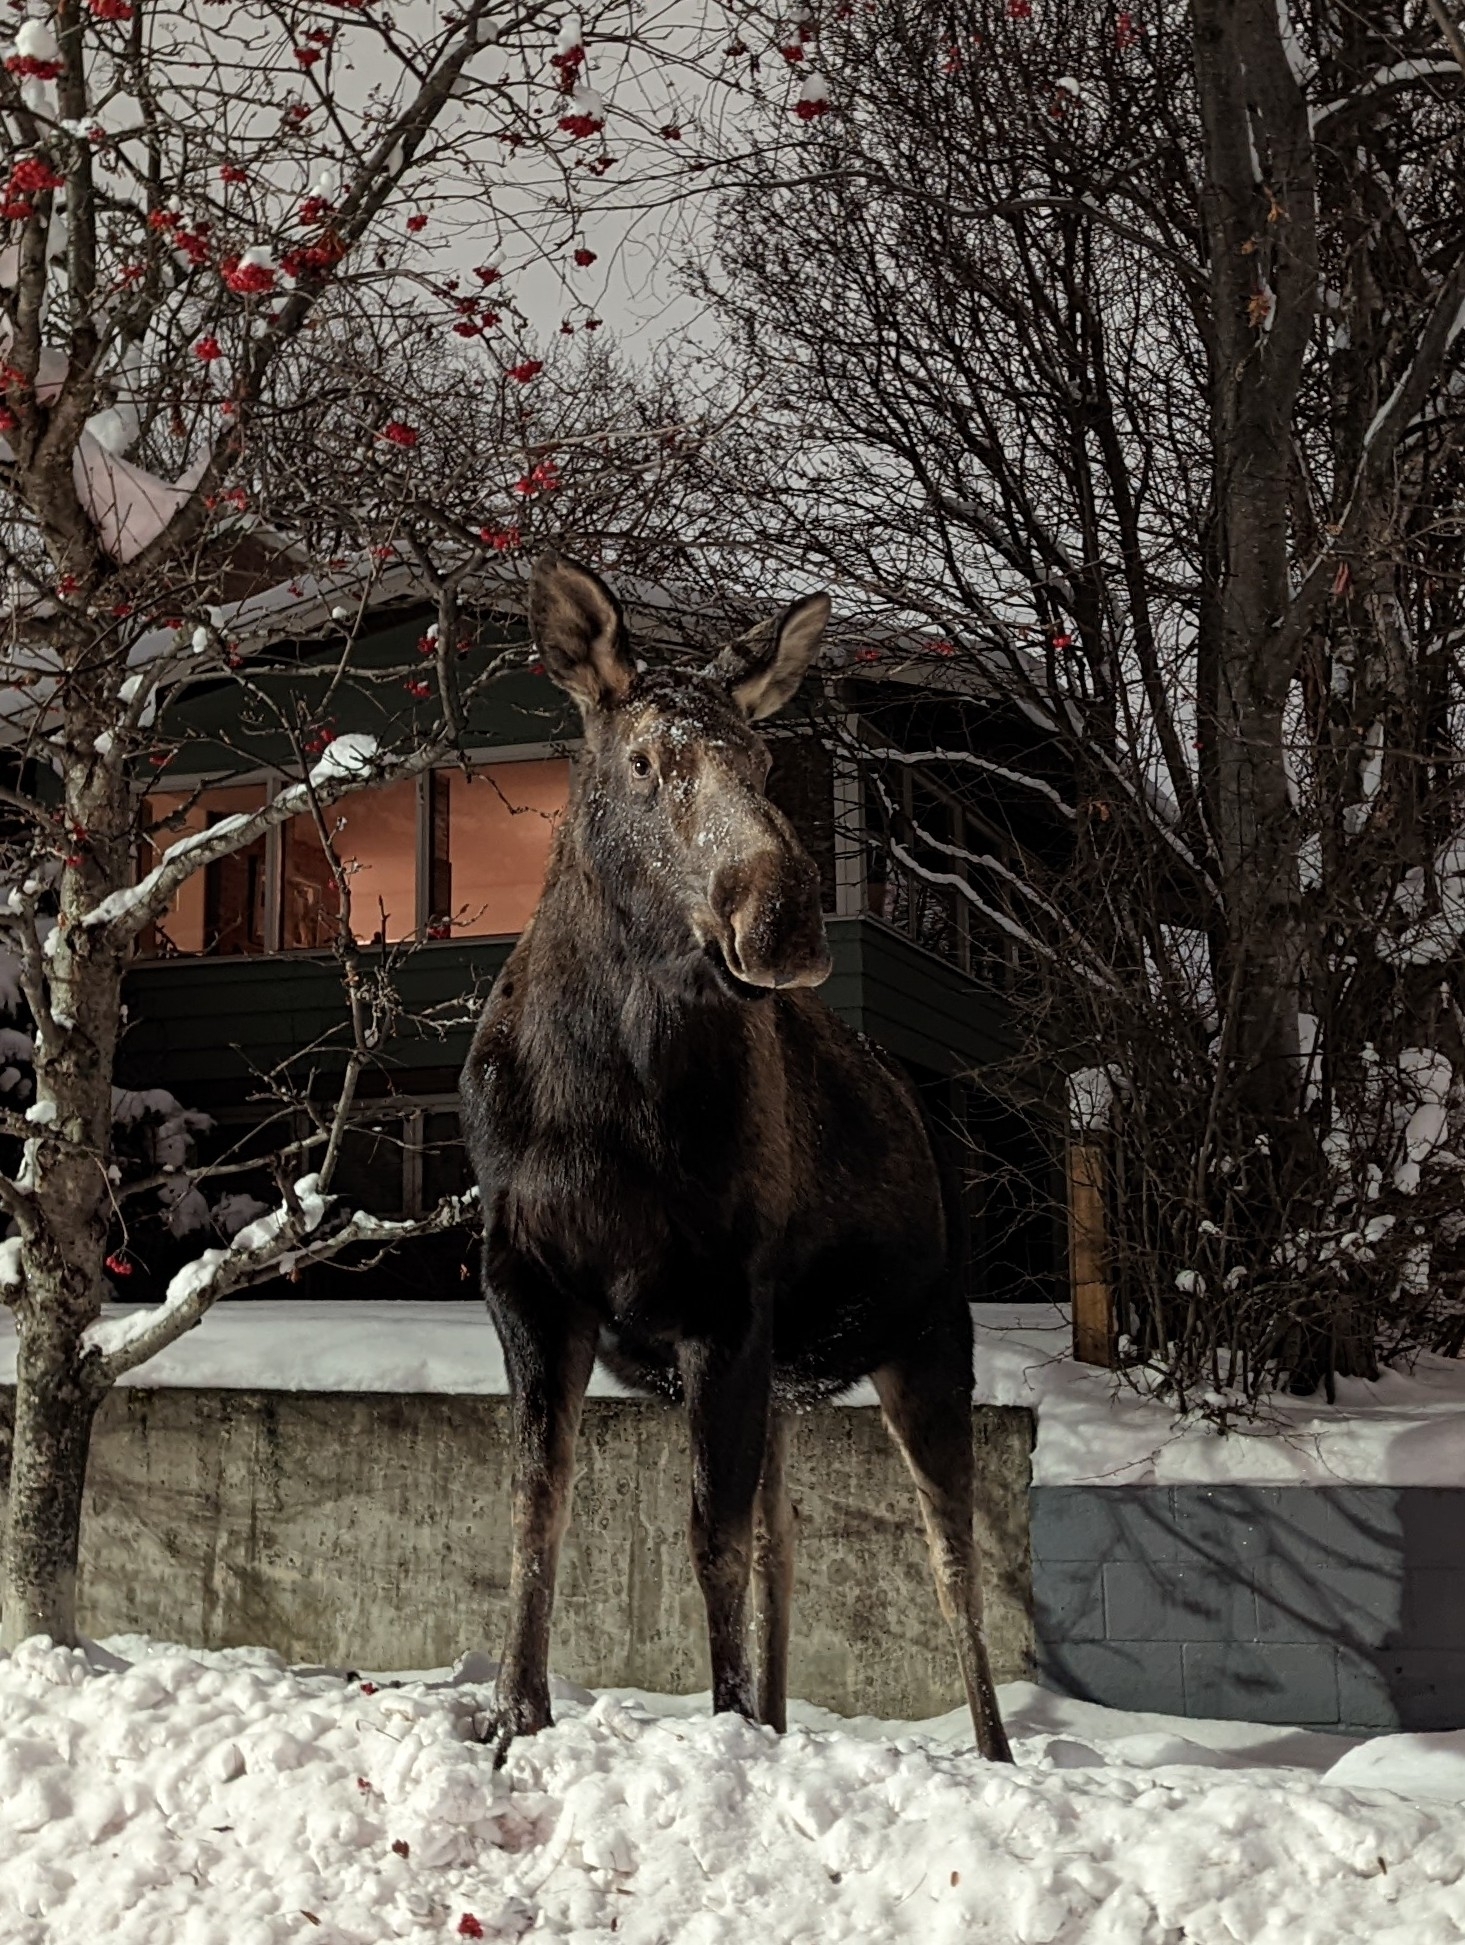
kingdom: Animalia
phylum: Chordata
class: Mammalia
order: Artiodactyla
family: Cervidae
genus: Alces
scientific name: Alces alces
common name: Moose
